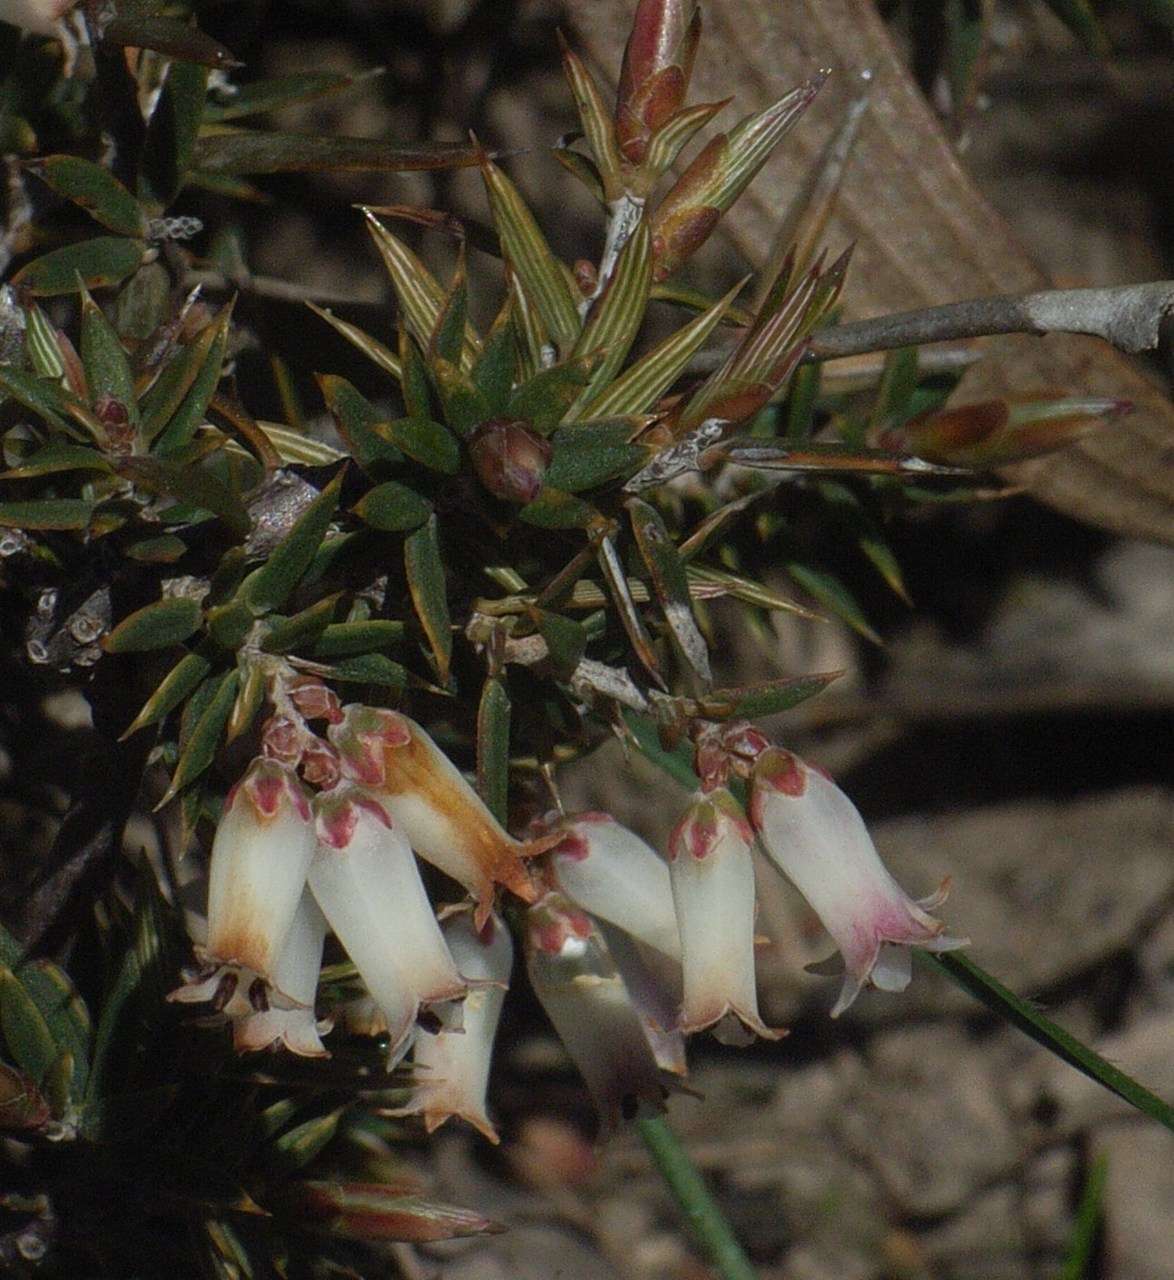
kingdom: Plantae
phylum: Tracheophyta
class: Magnoliopsida
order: Ericales
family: Ericaceae
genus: Lissanthe
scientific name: Lissanthe strigosa
